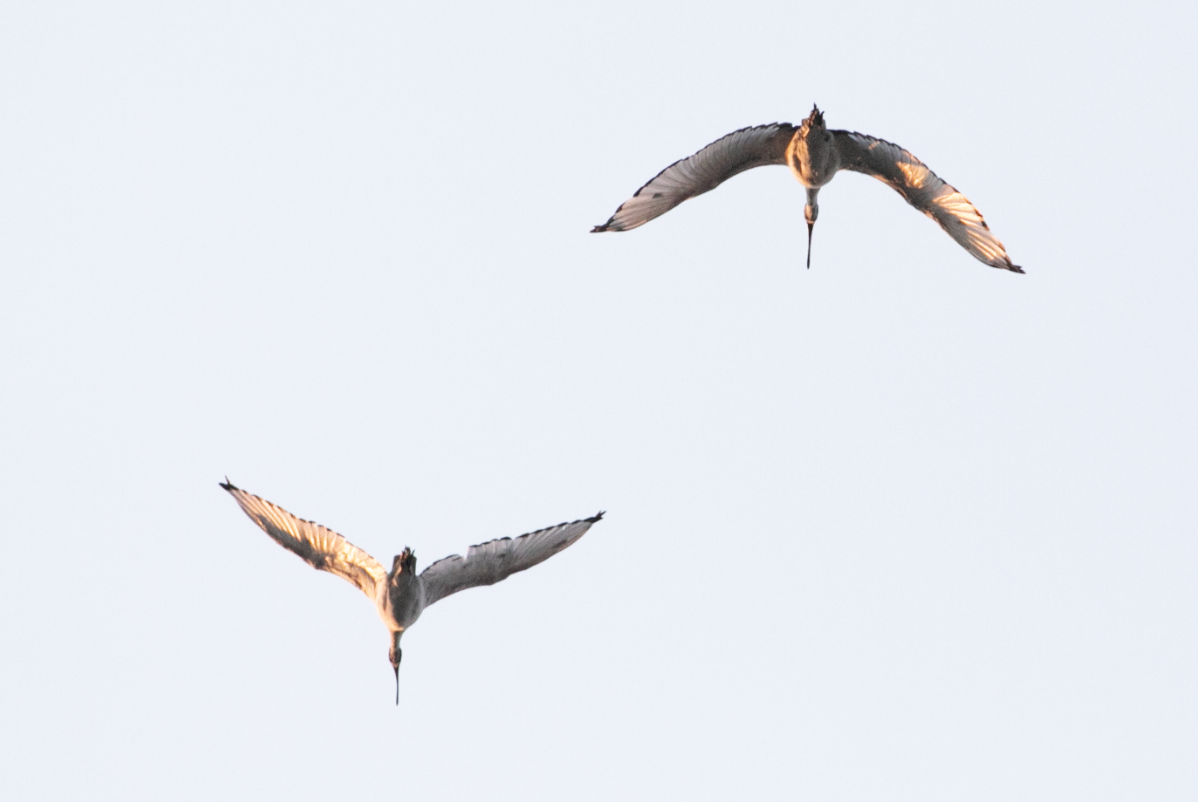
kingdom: Animalia
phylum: Chordata
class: Aves
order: Pelecaniformes
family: Threskiornithidae
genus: Threskiornis
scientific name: Threskiornis aethiopicus
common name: Sacred ibis
